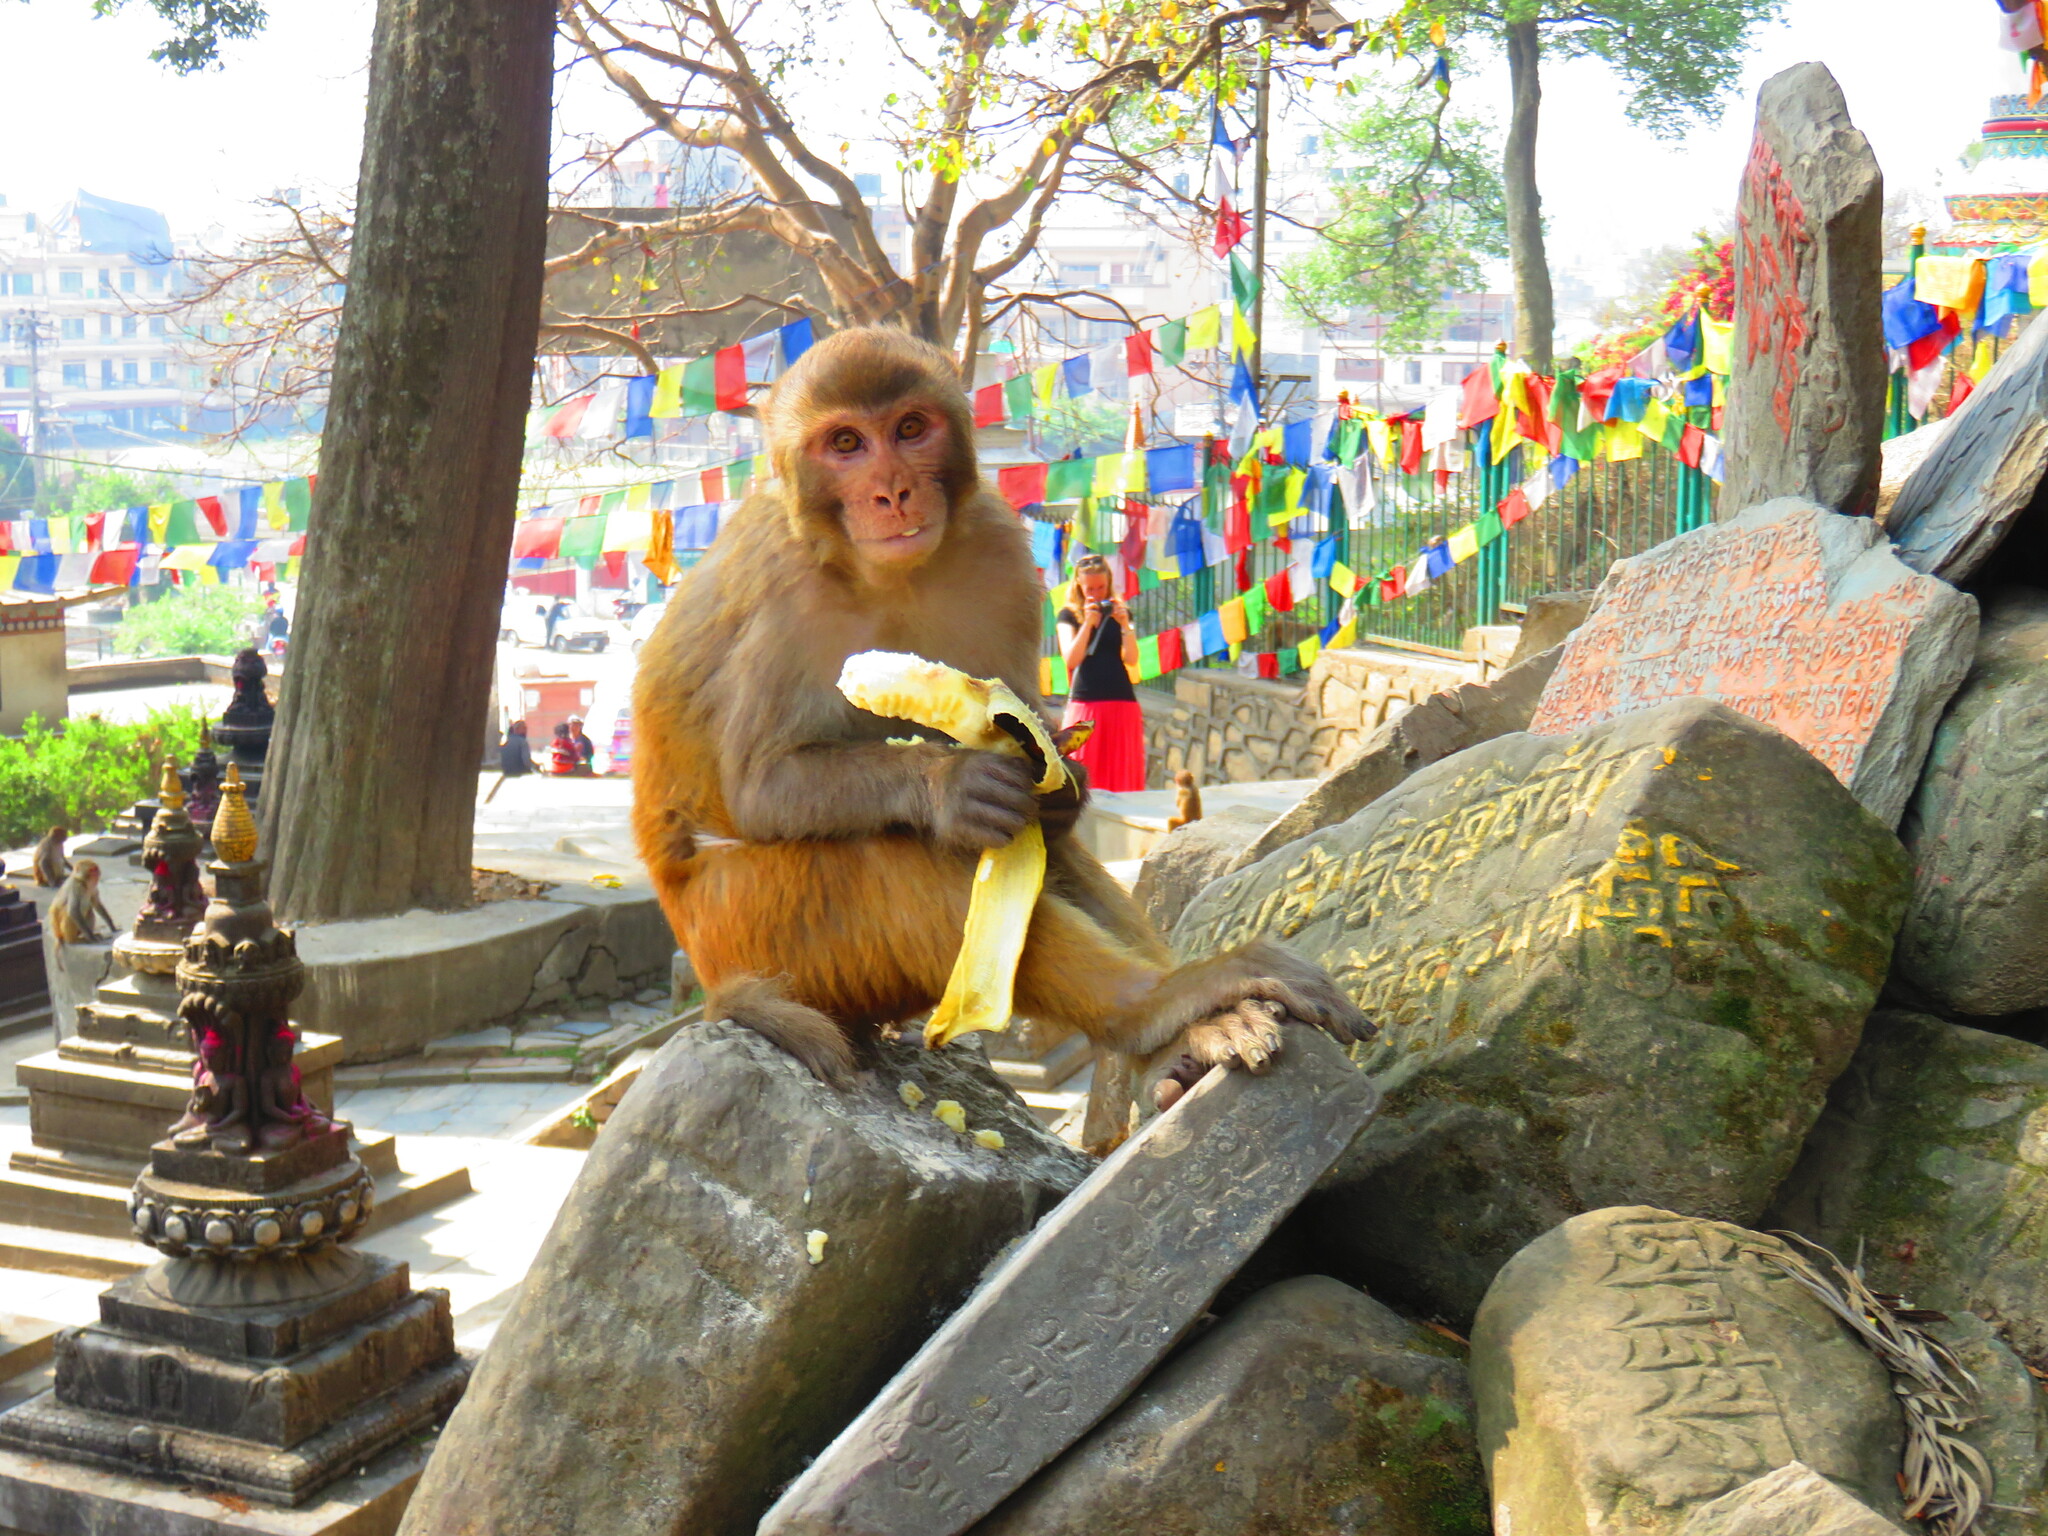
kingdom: Animalia
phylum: Chordata
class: Mammalia
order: Primates
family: Cercopithecidae
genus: Macaca
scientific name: Macaca mulatta
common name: Rhesus monkey
